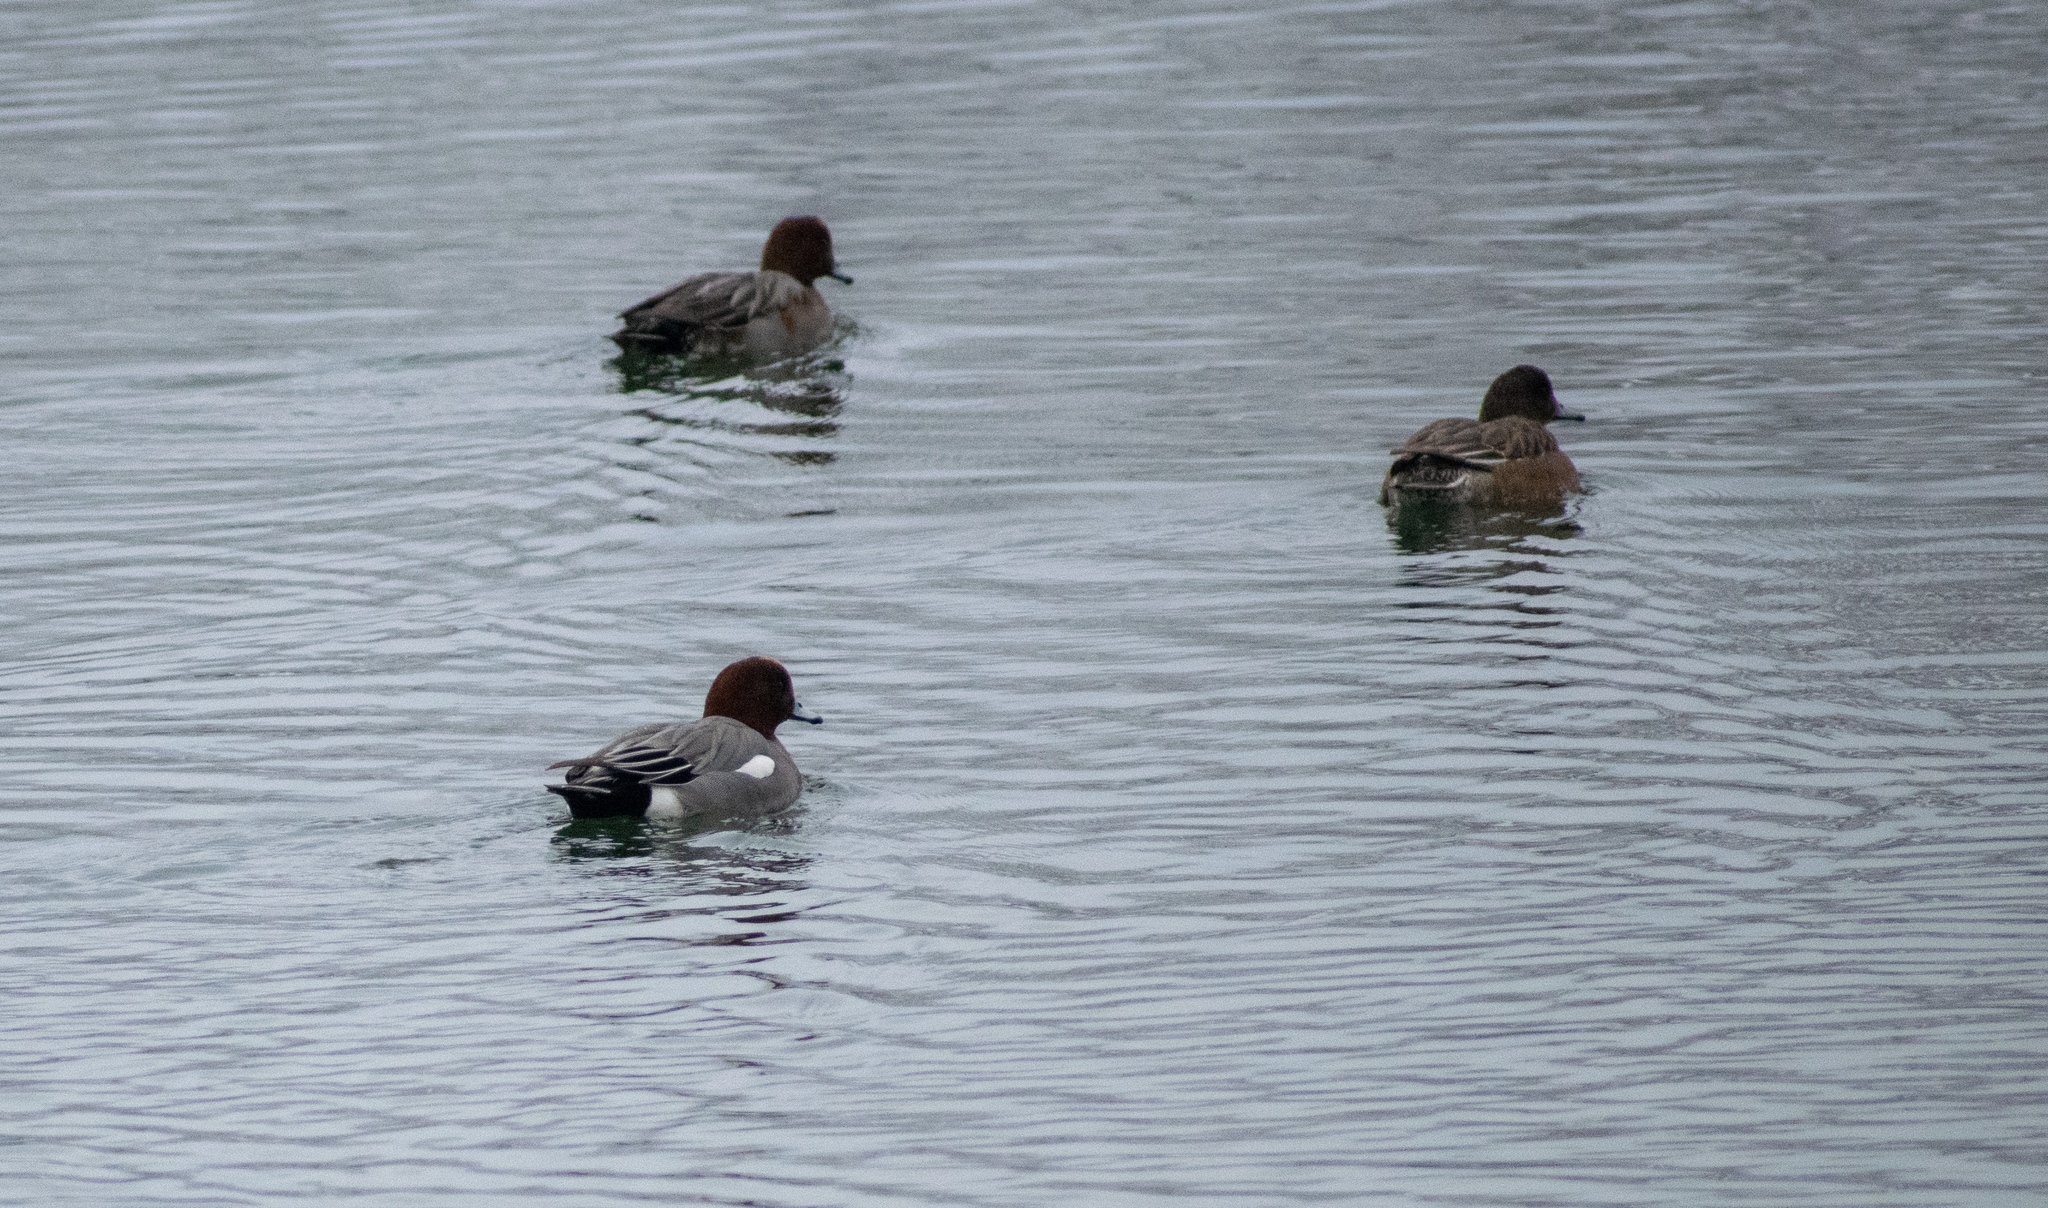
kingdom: Animalia
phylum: Chordata
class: Aves
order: Anseriformes
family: Anatidae
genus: Mareca
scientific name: Mareca penelope
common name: Eurasian wigeon
